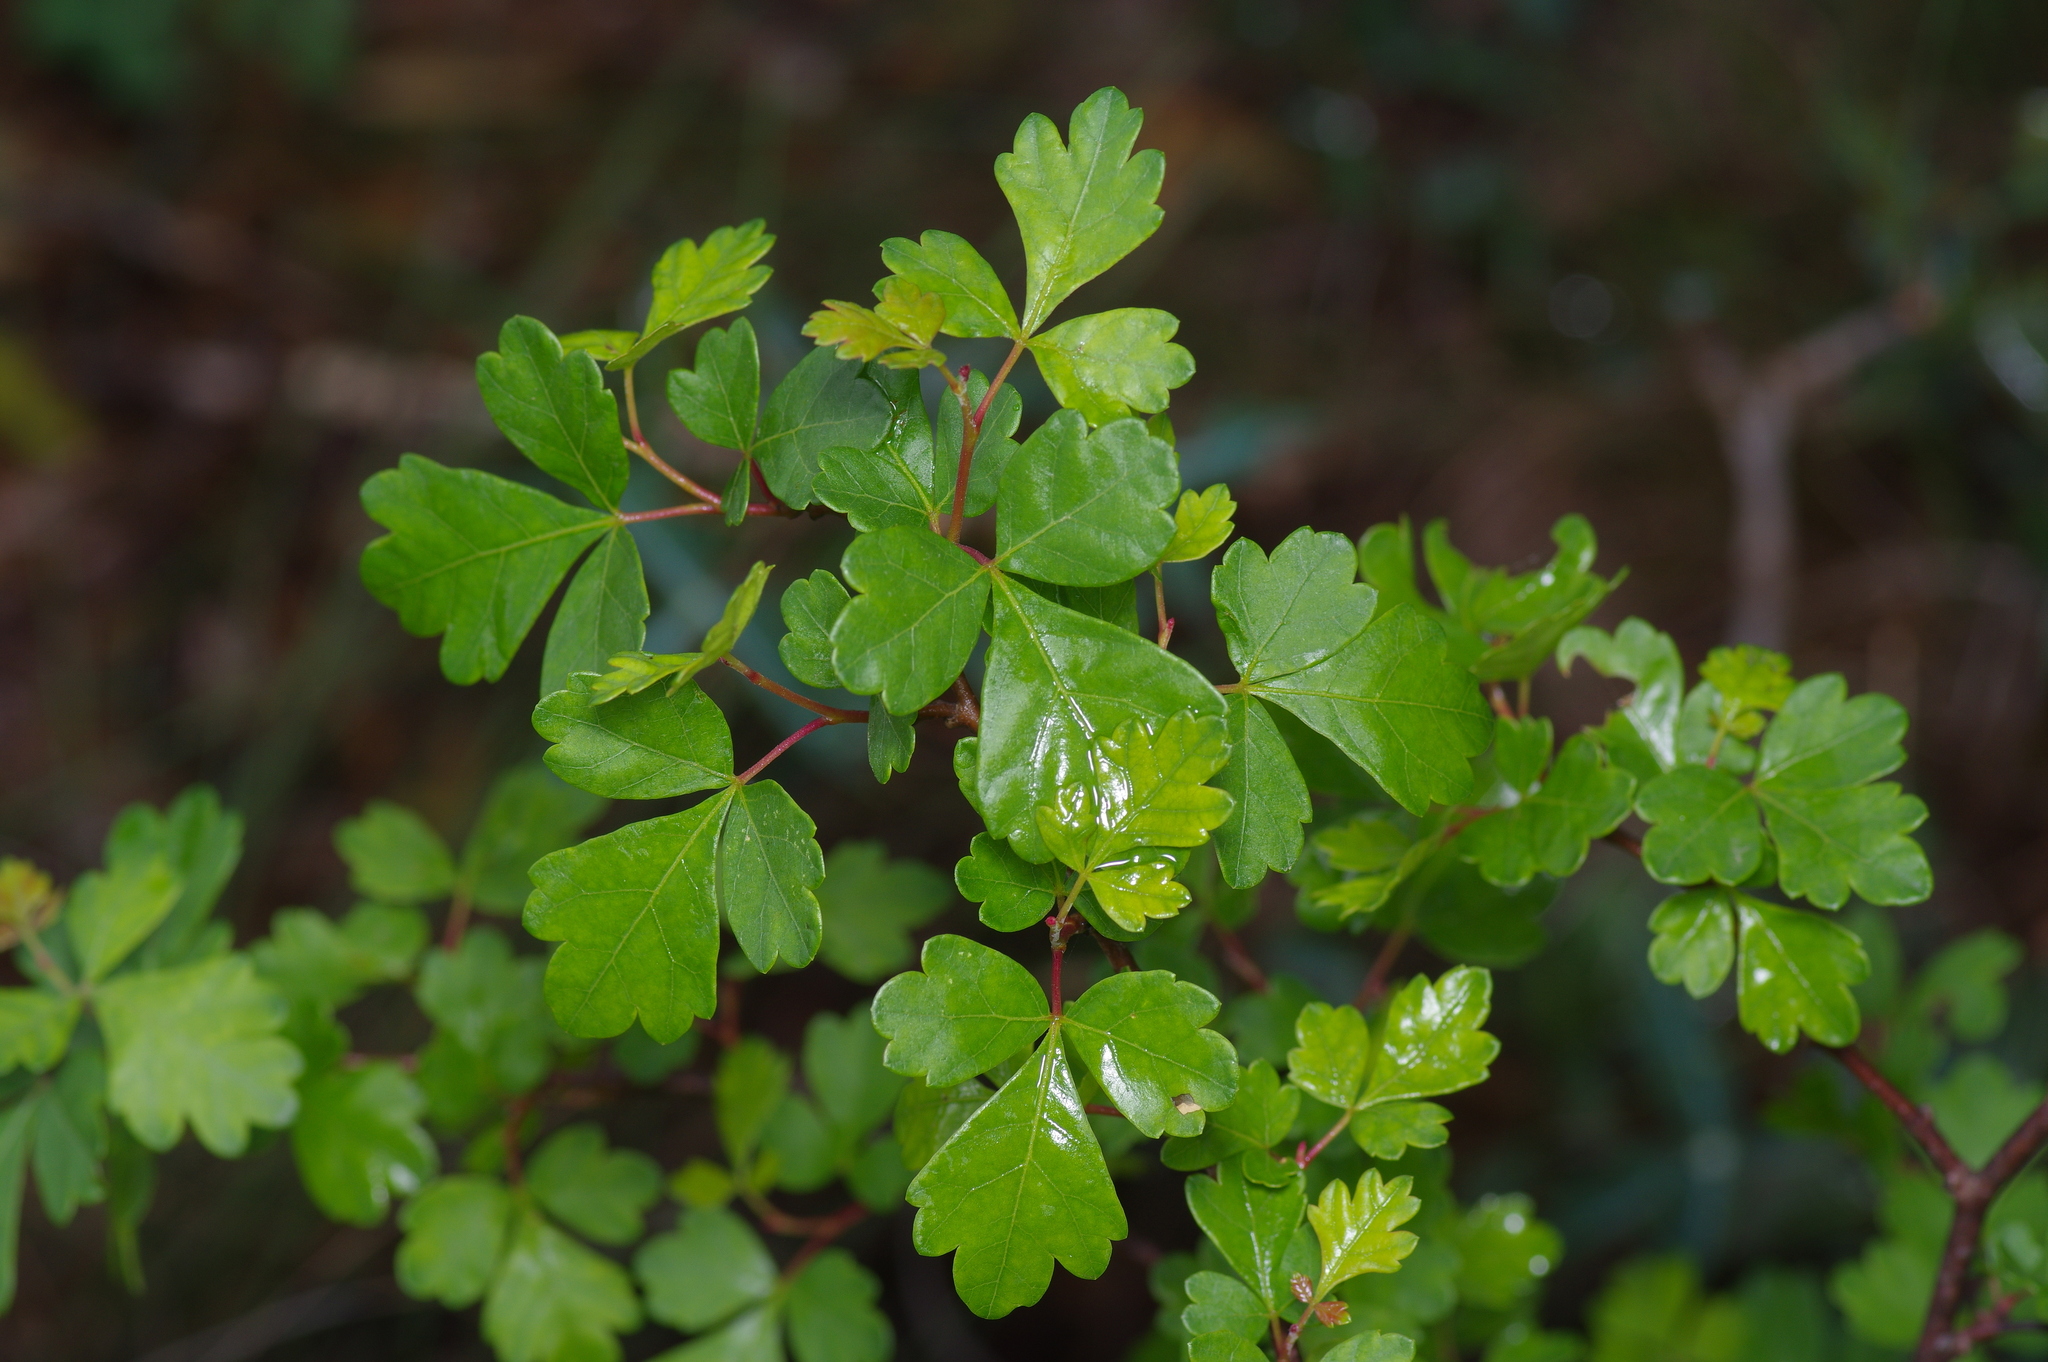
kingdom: Plantae
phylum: Tracheophyta
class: Magnoliopsida
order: Sapindales
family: Anacardiaceae
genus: Rhus
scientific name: Rhus aromatica
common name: Aromatic sumac
